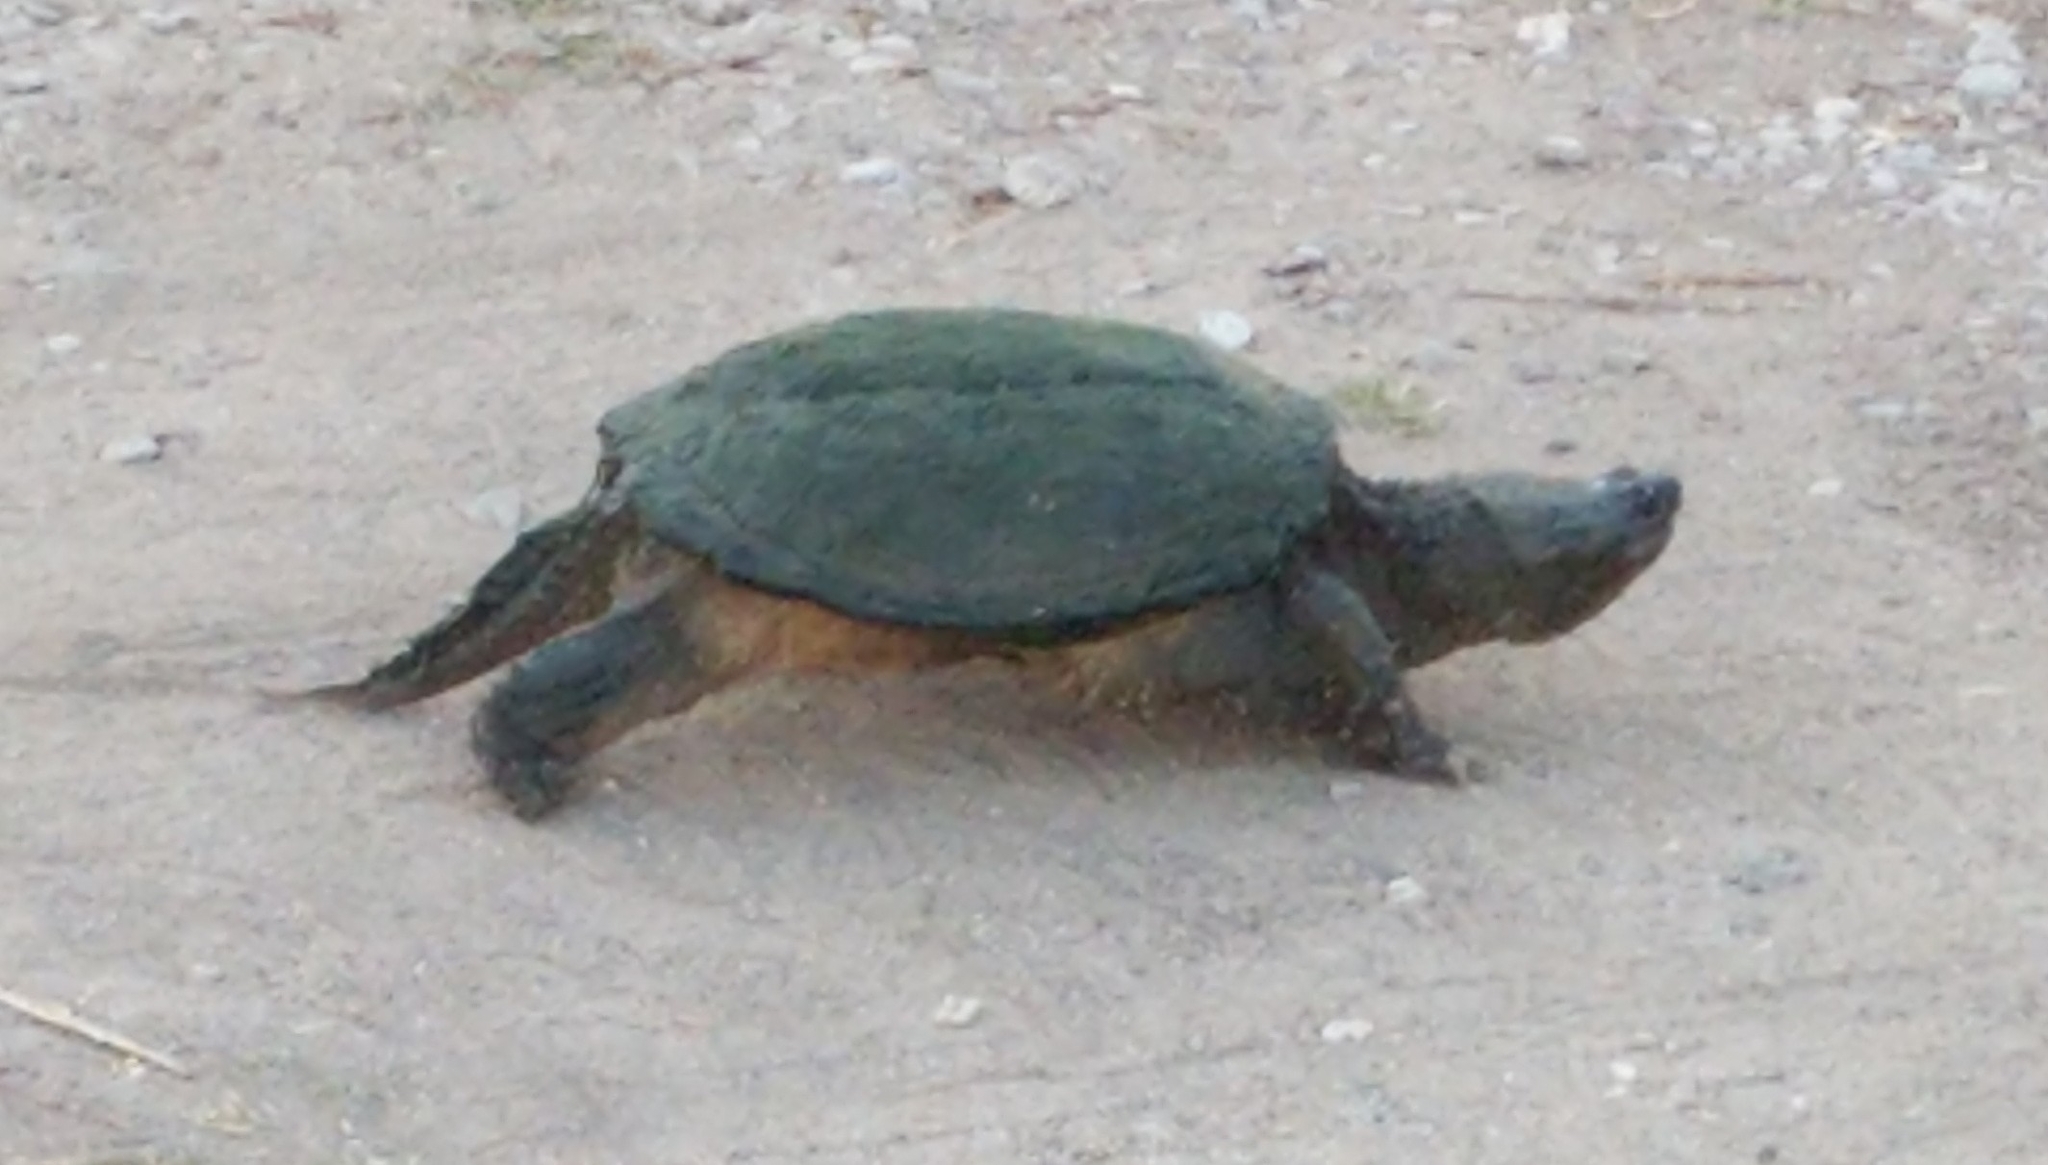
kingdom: Animalia
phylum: Chordata
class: Testudines
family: Chelydridae
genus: Chelydra
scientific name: Chelydra serpentina
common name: Common snapping turtle
